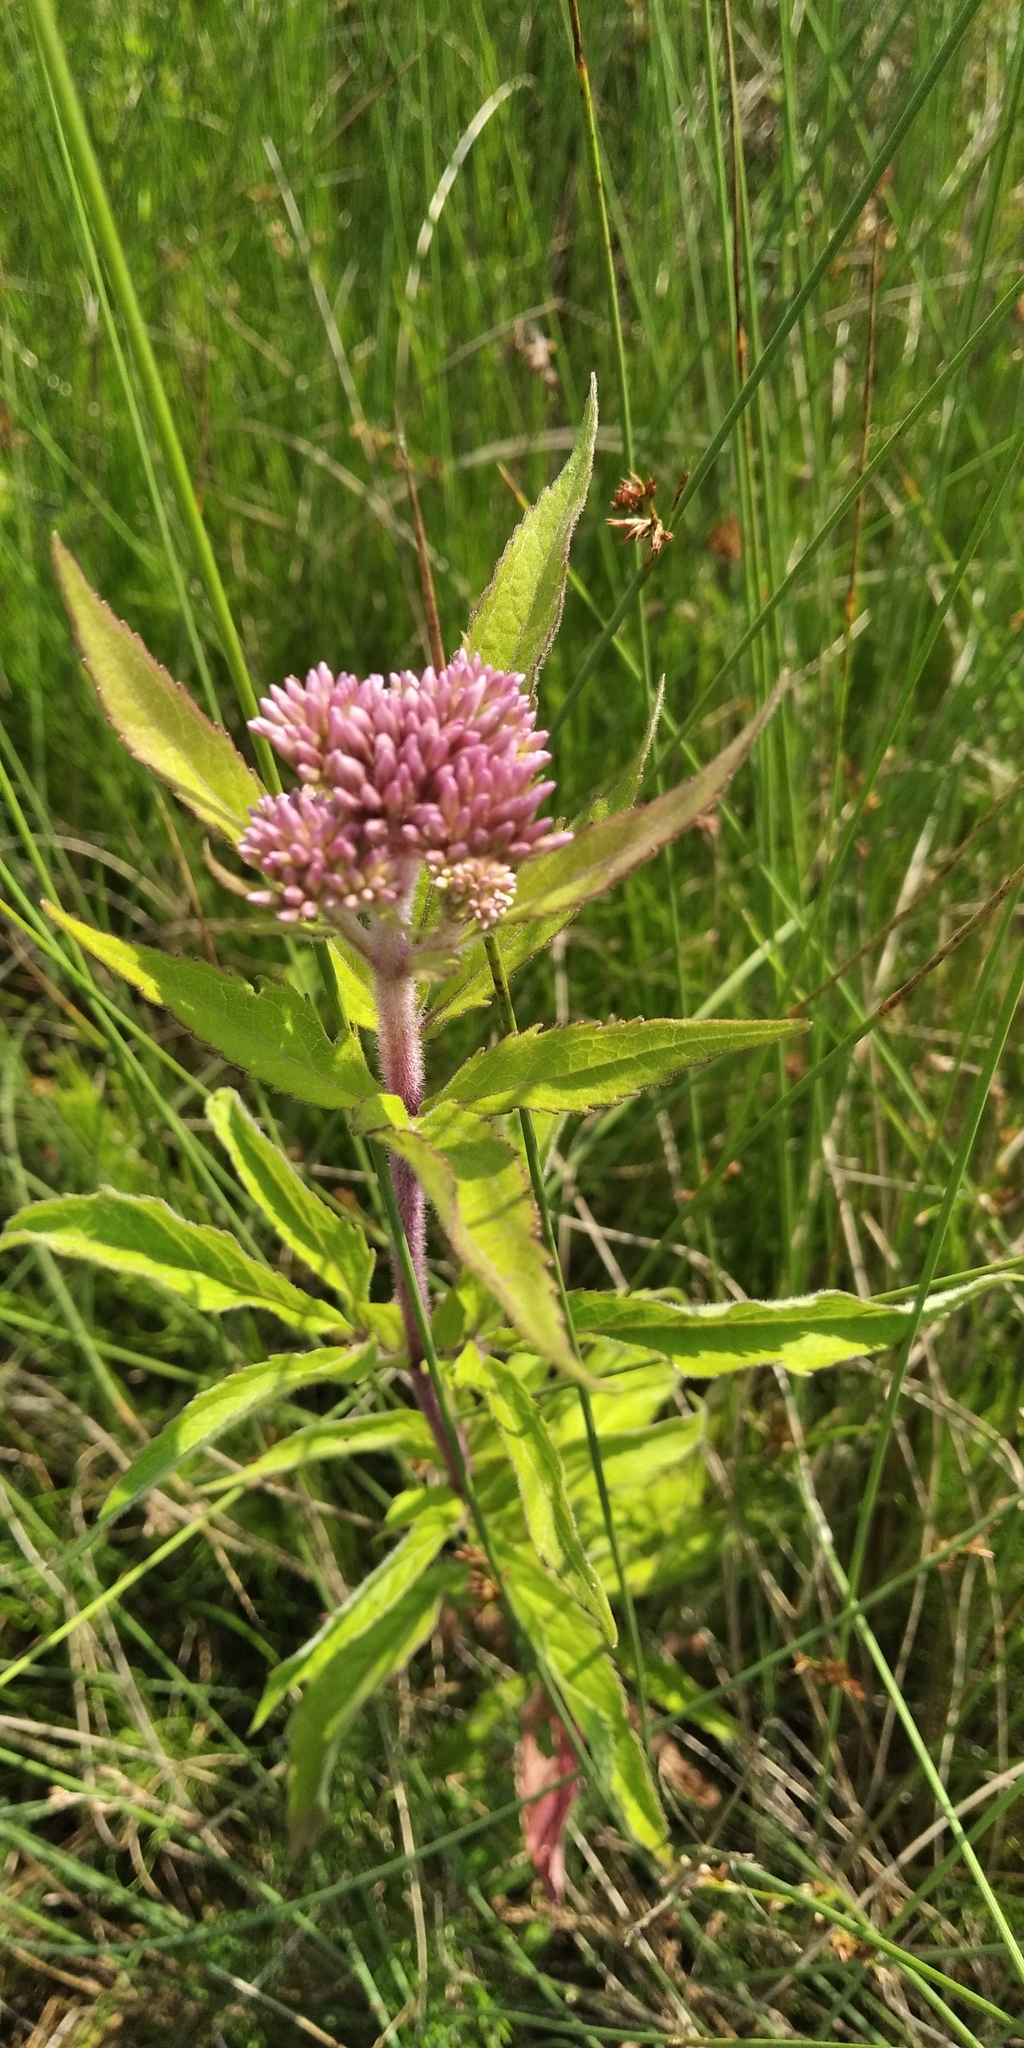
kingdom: Plantae
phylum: Tracheophyta
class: Magnoliopsida
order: Asterales
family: Asteraceae
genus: Eupatorium
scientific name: Eupatorium cannabinum
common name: Hemp-agrimony
